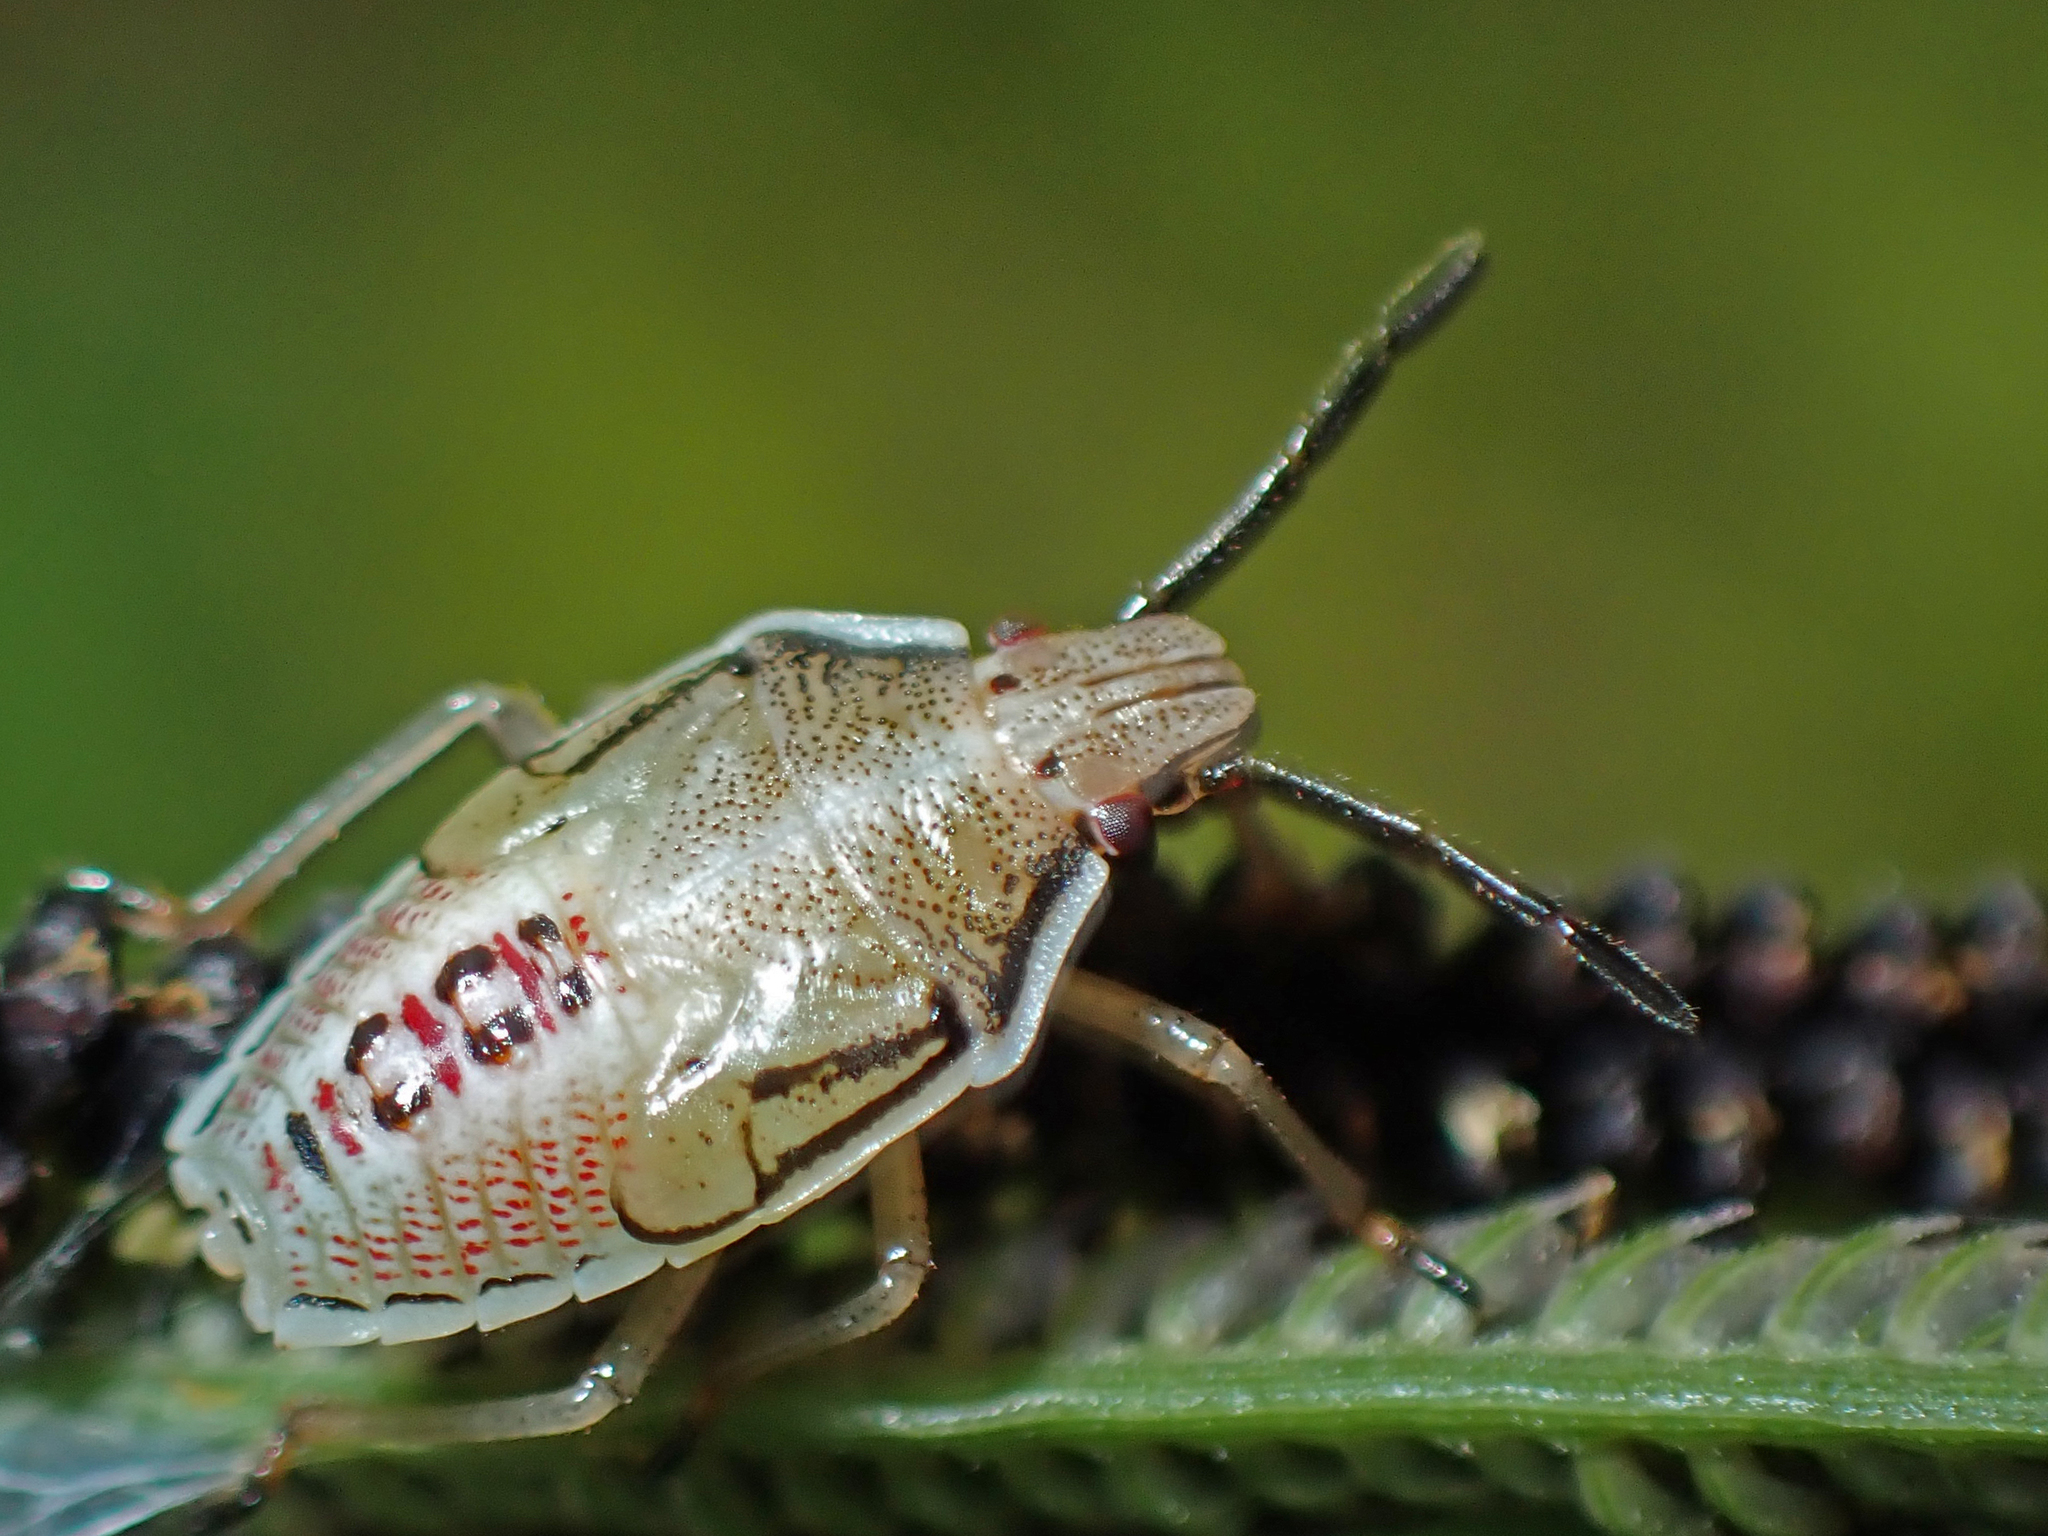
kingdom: Animalia
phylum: Arthropoda
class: Insecta
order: Hemiptera
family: Pentatomidae
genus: Oebalus
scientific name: Oebalus pugnax
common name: Rice stink bug
